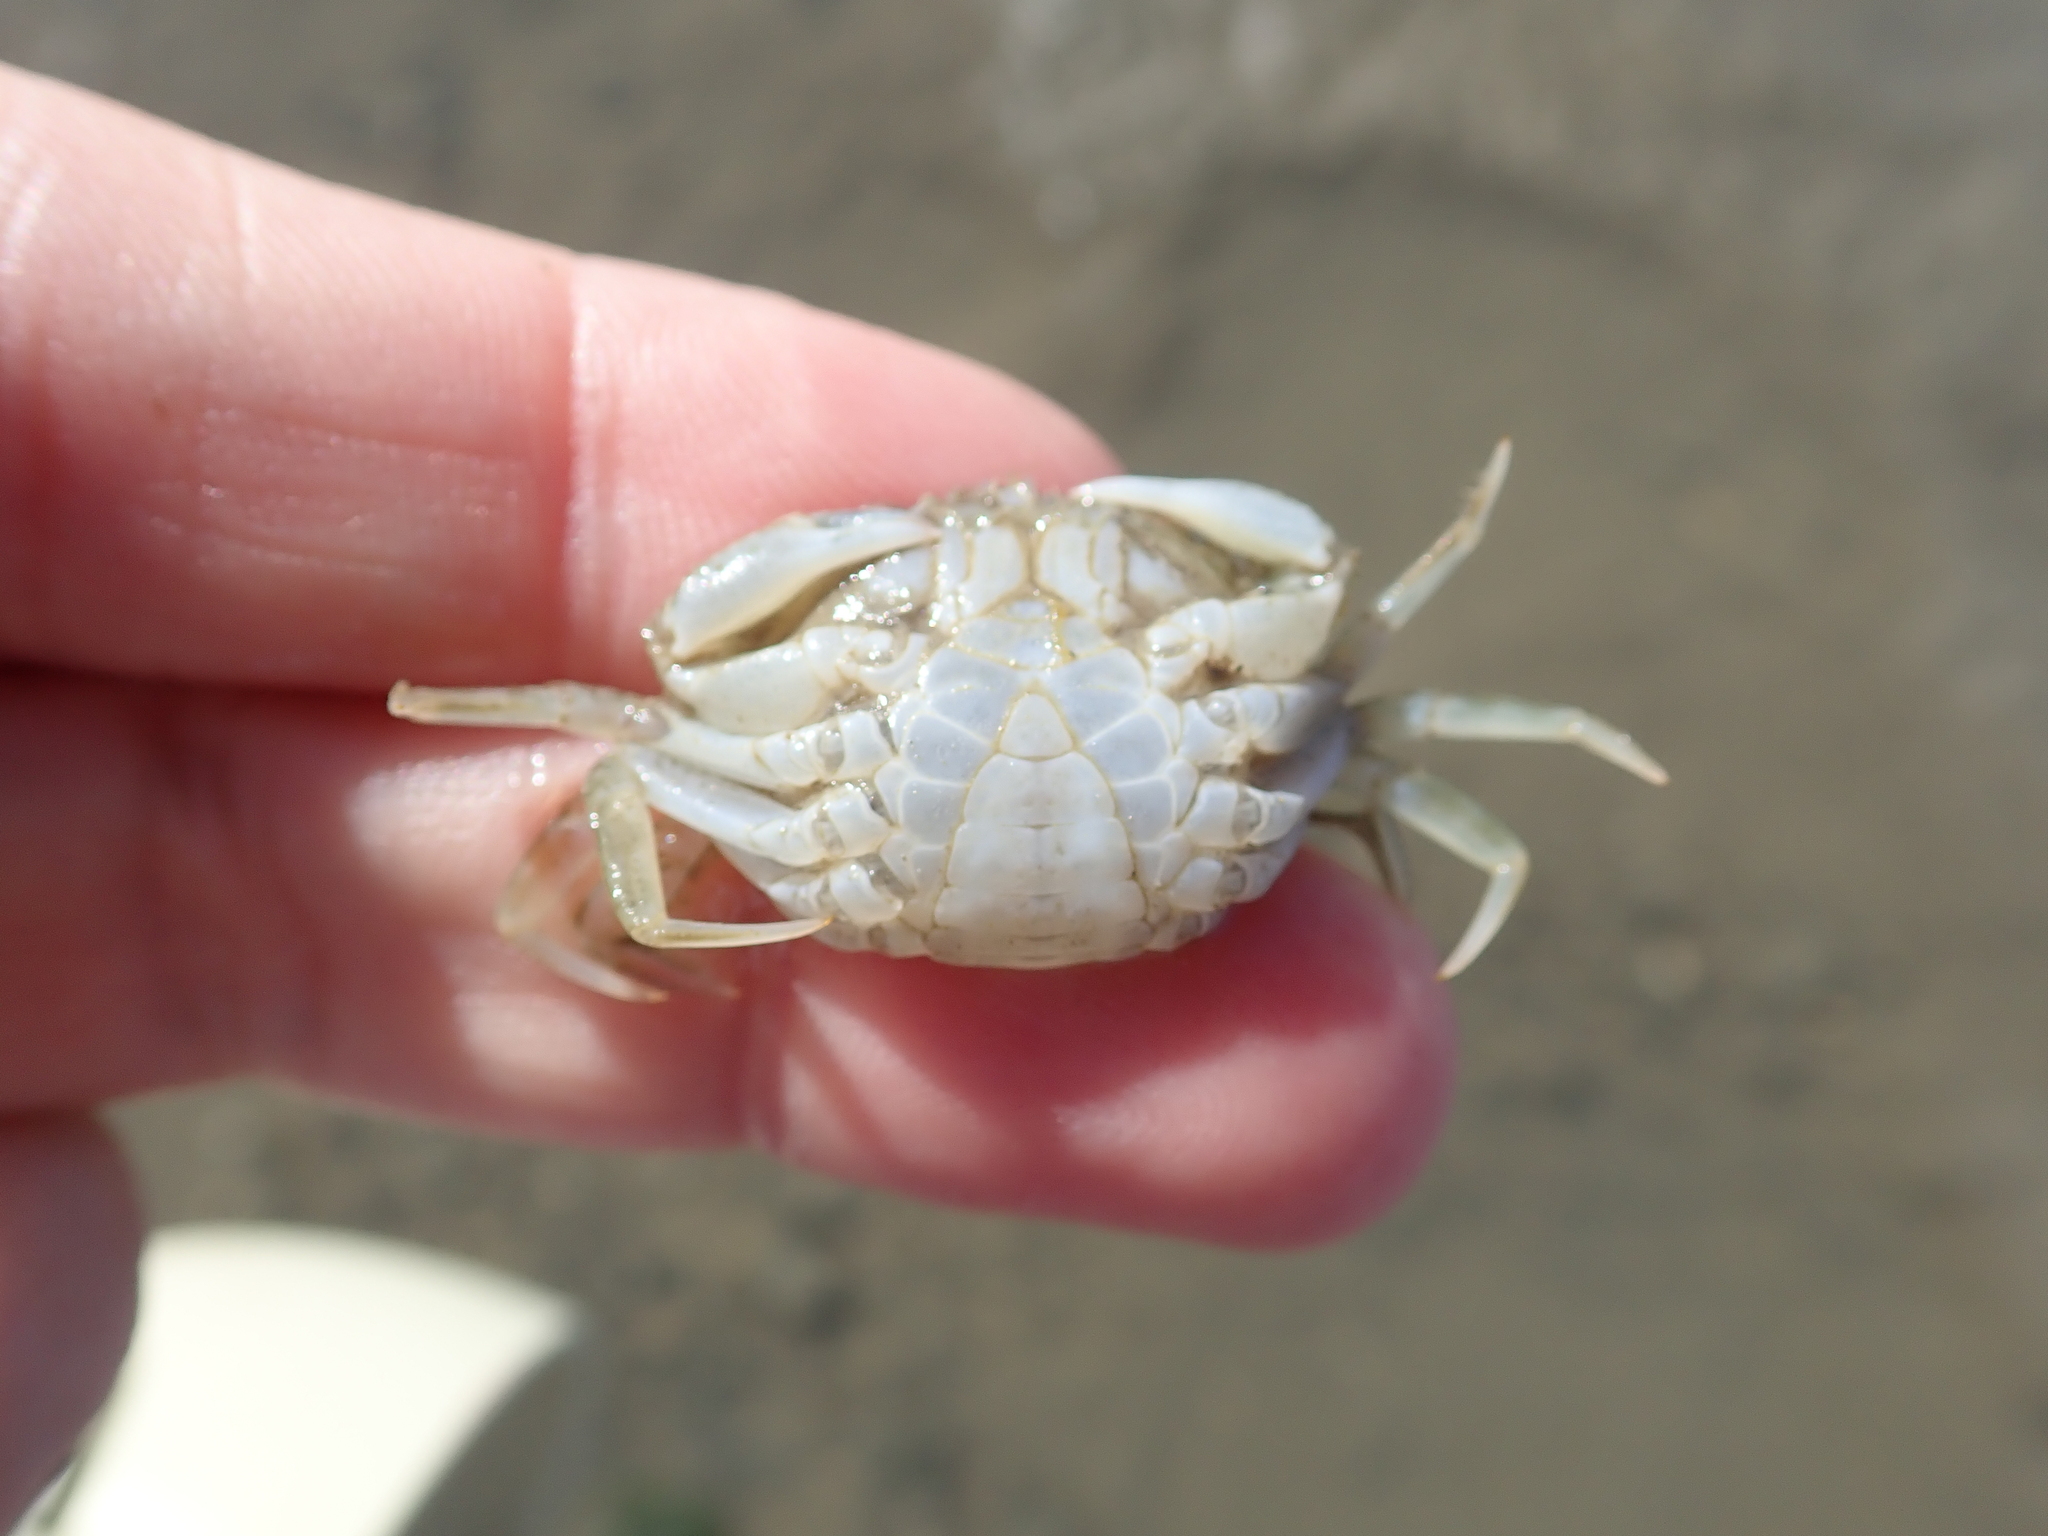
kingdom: Animalia
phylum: Arthropoda
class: Malacostraca
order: Decapoda
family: Carcinidae
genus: Carcinus
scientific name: Carcinus maenas
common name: European green crab
